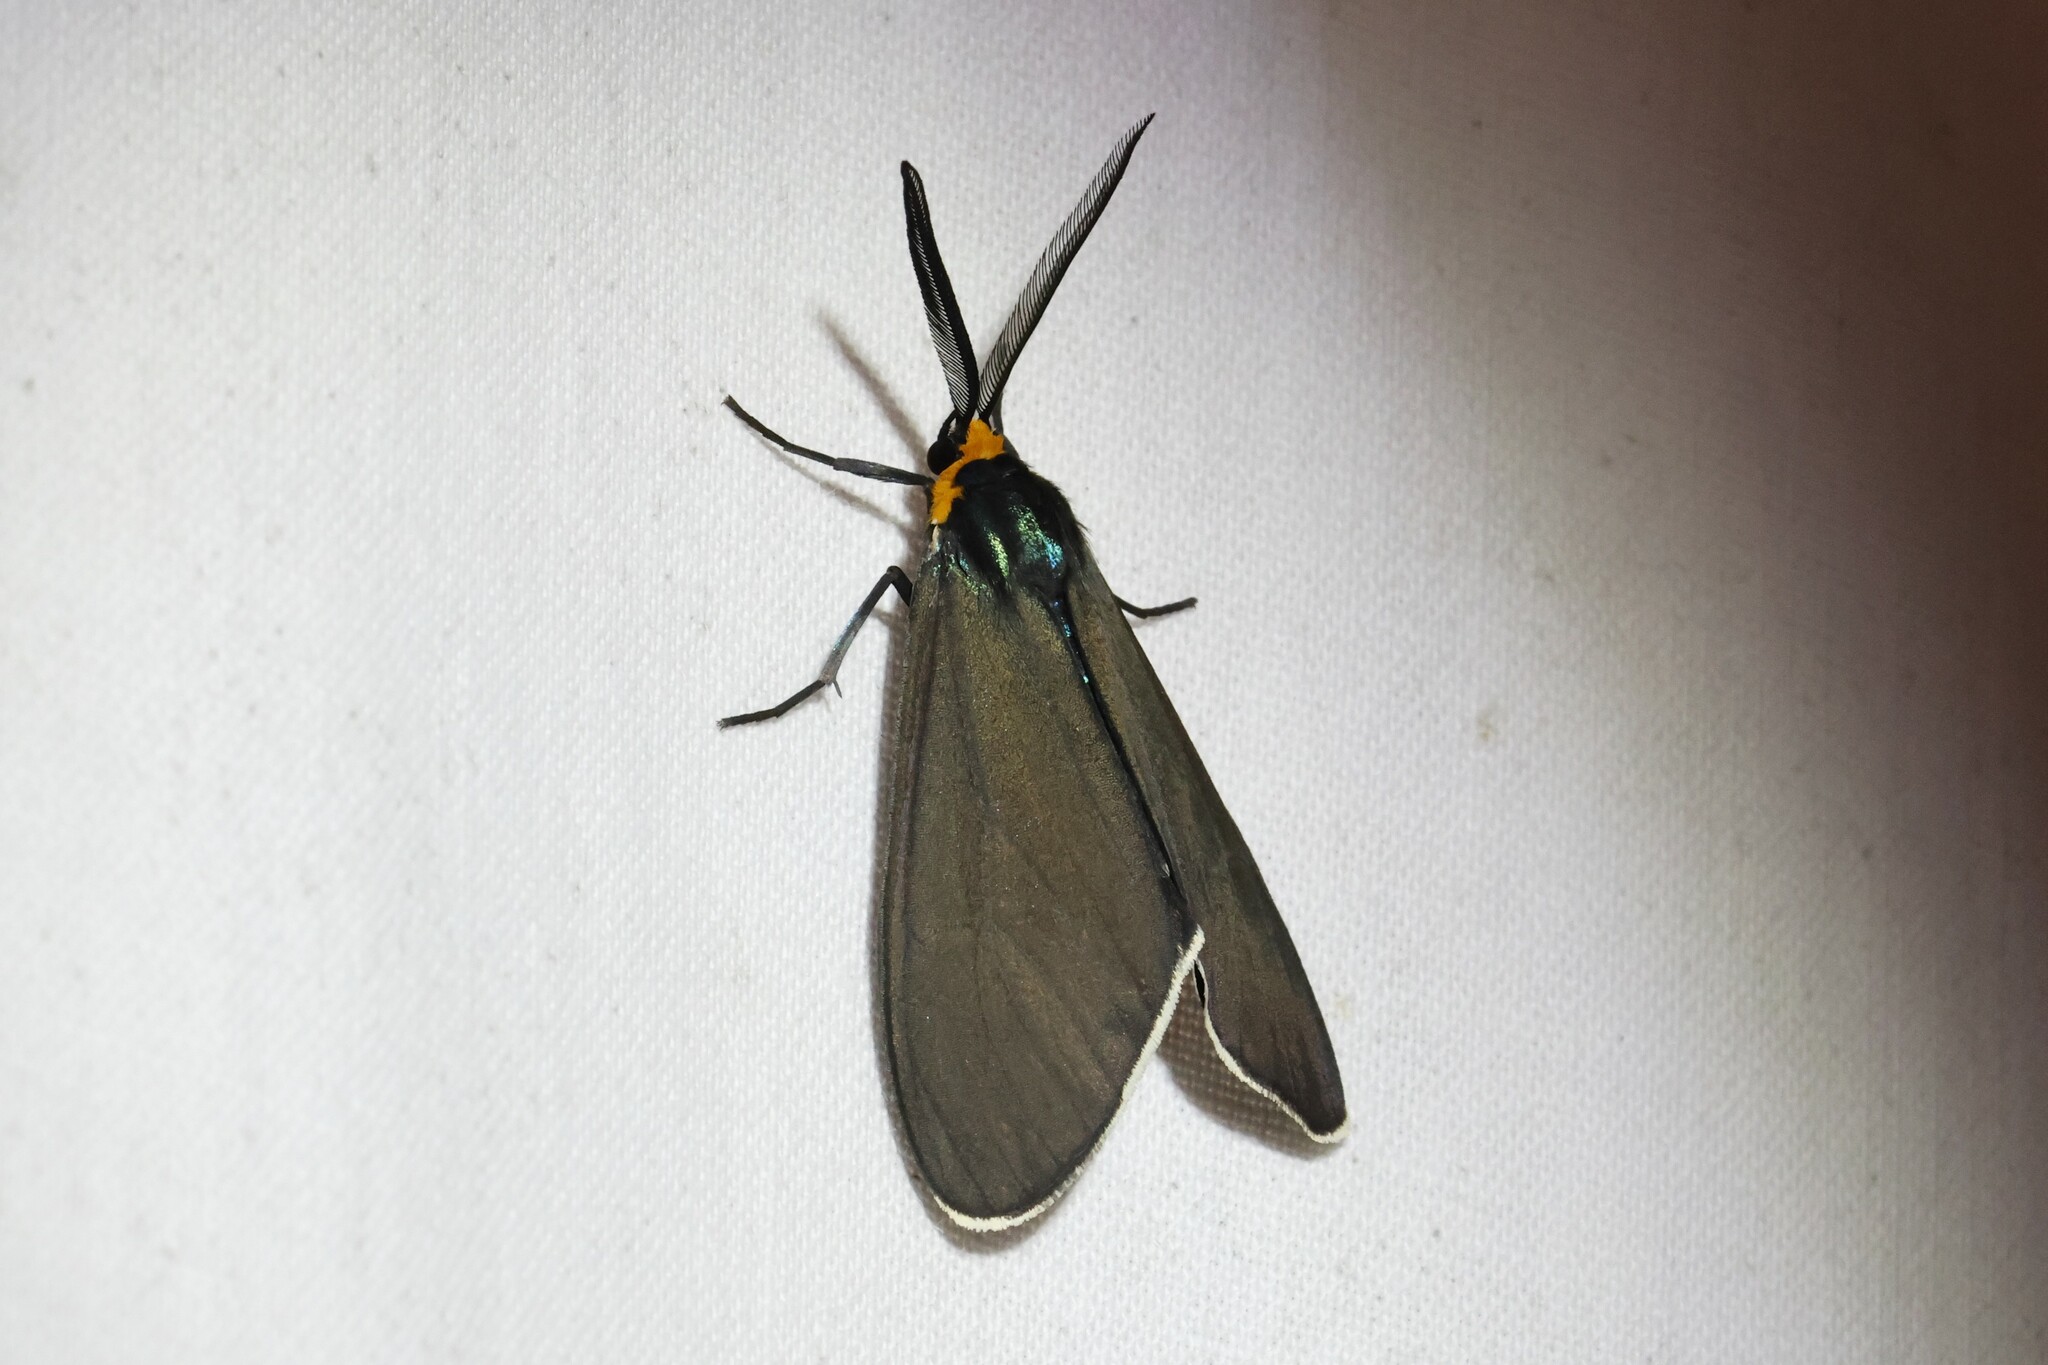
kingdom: Animalia
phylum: Arthropoda
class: Insecta
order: Lepidoptera
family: Erebidae
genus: Ctenucha
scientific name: Ctenucha virginica
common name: Virginia ctenucha moth
